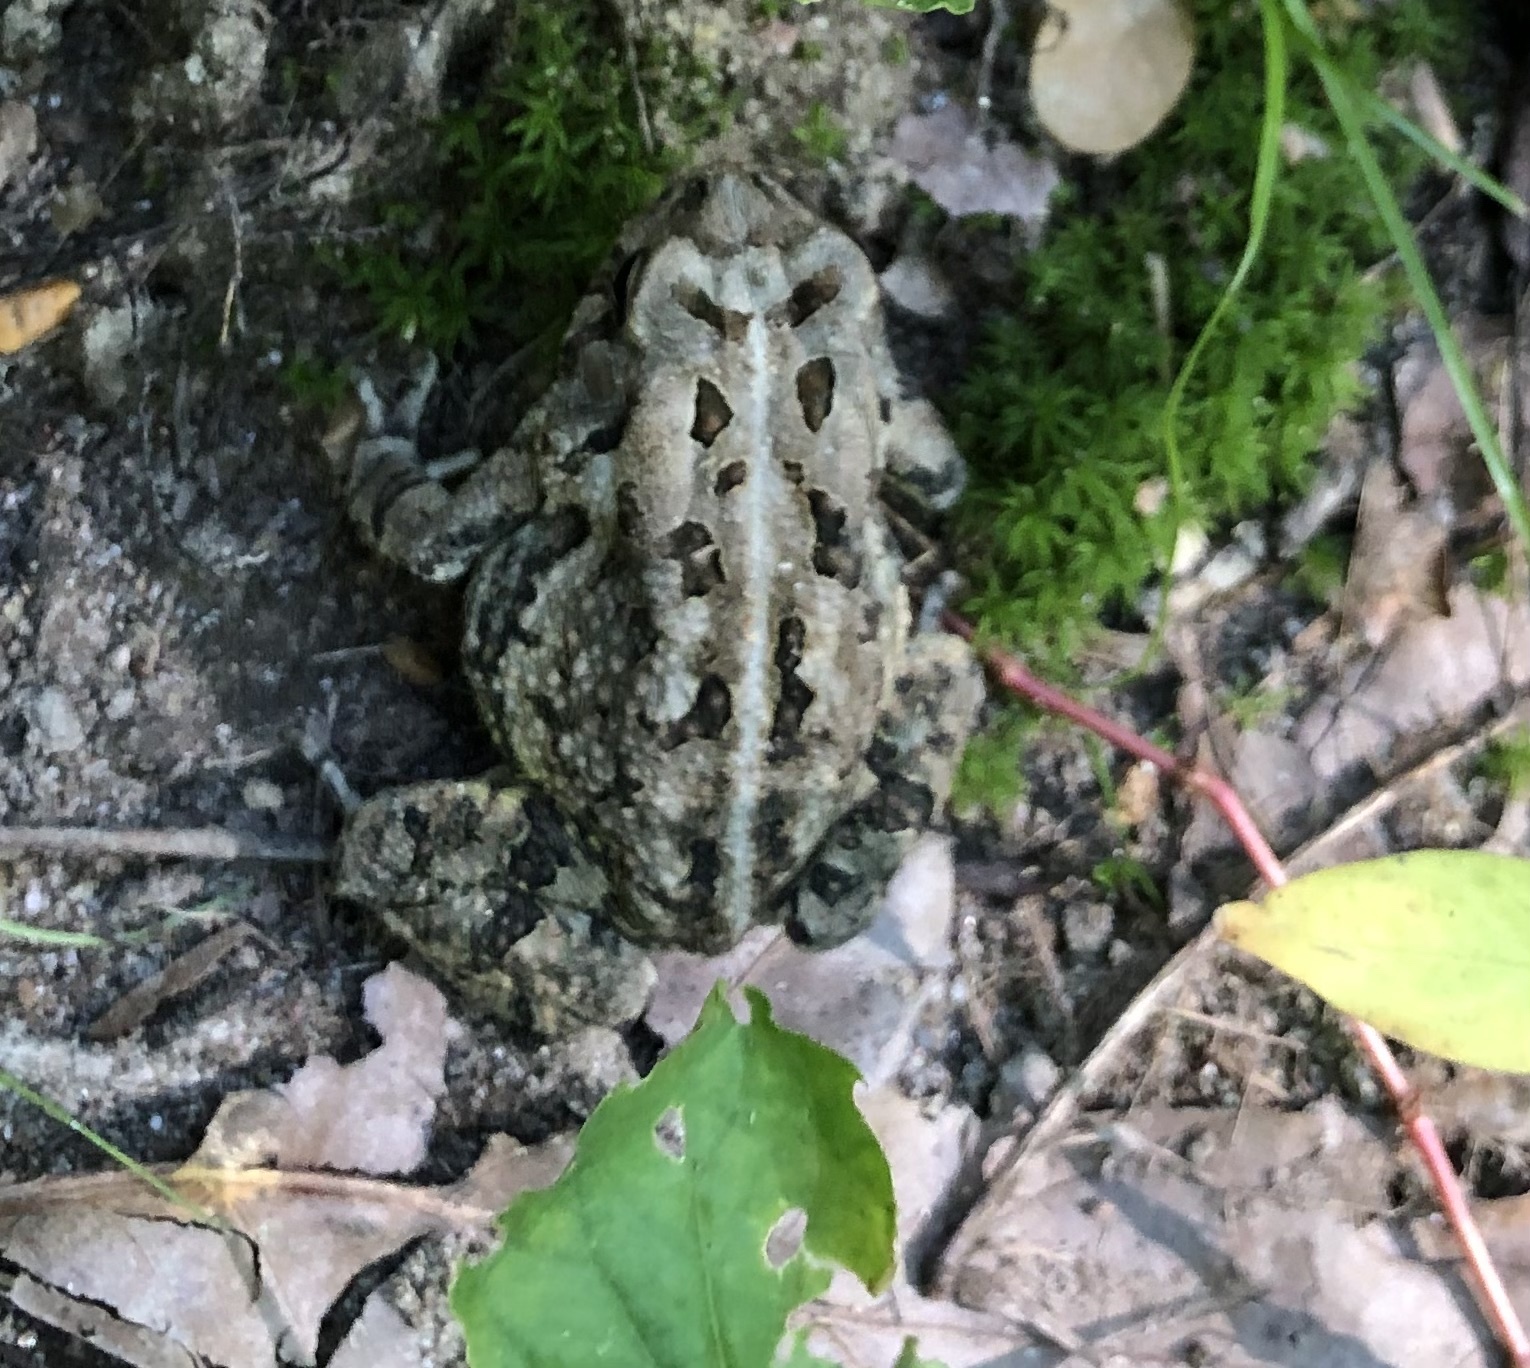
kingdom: Animalia
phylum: Chordata
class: Amphibia
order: Anura
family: Bufonidae
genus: Anaxyrus
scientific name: Anaxyrus fowleri
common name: Fowler's toad
